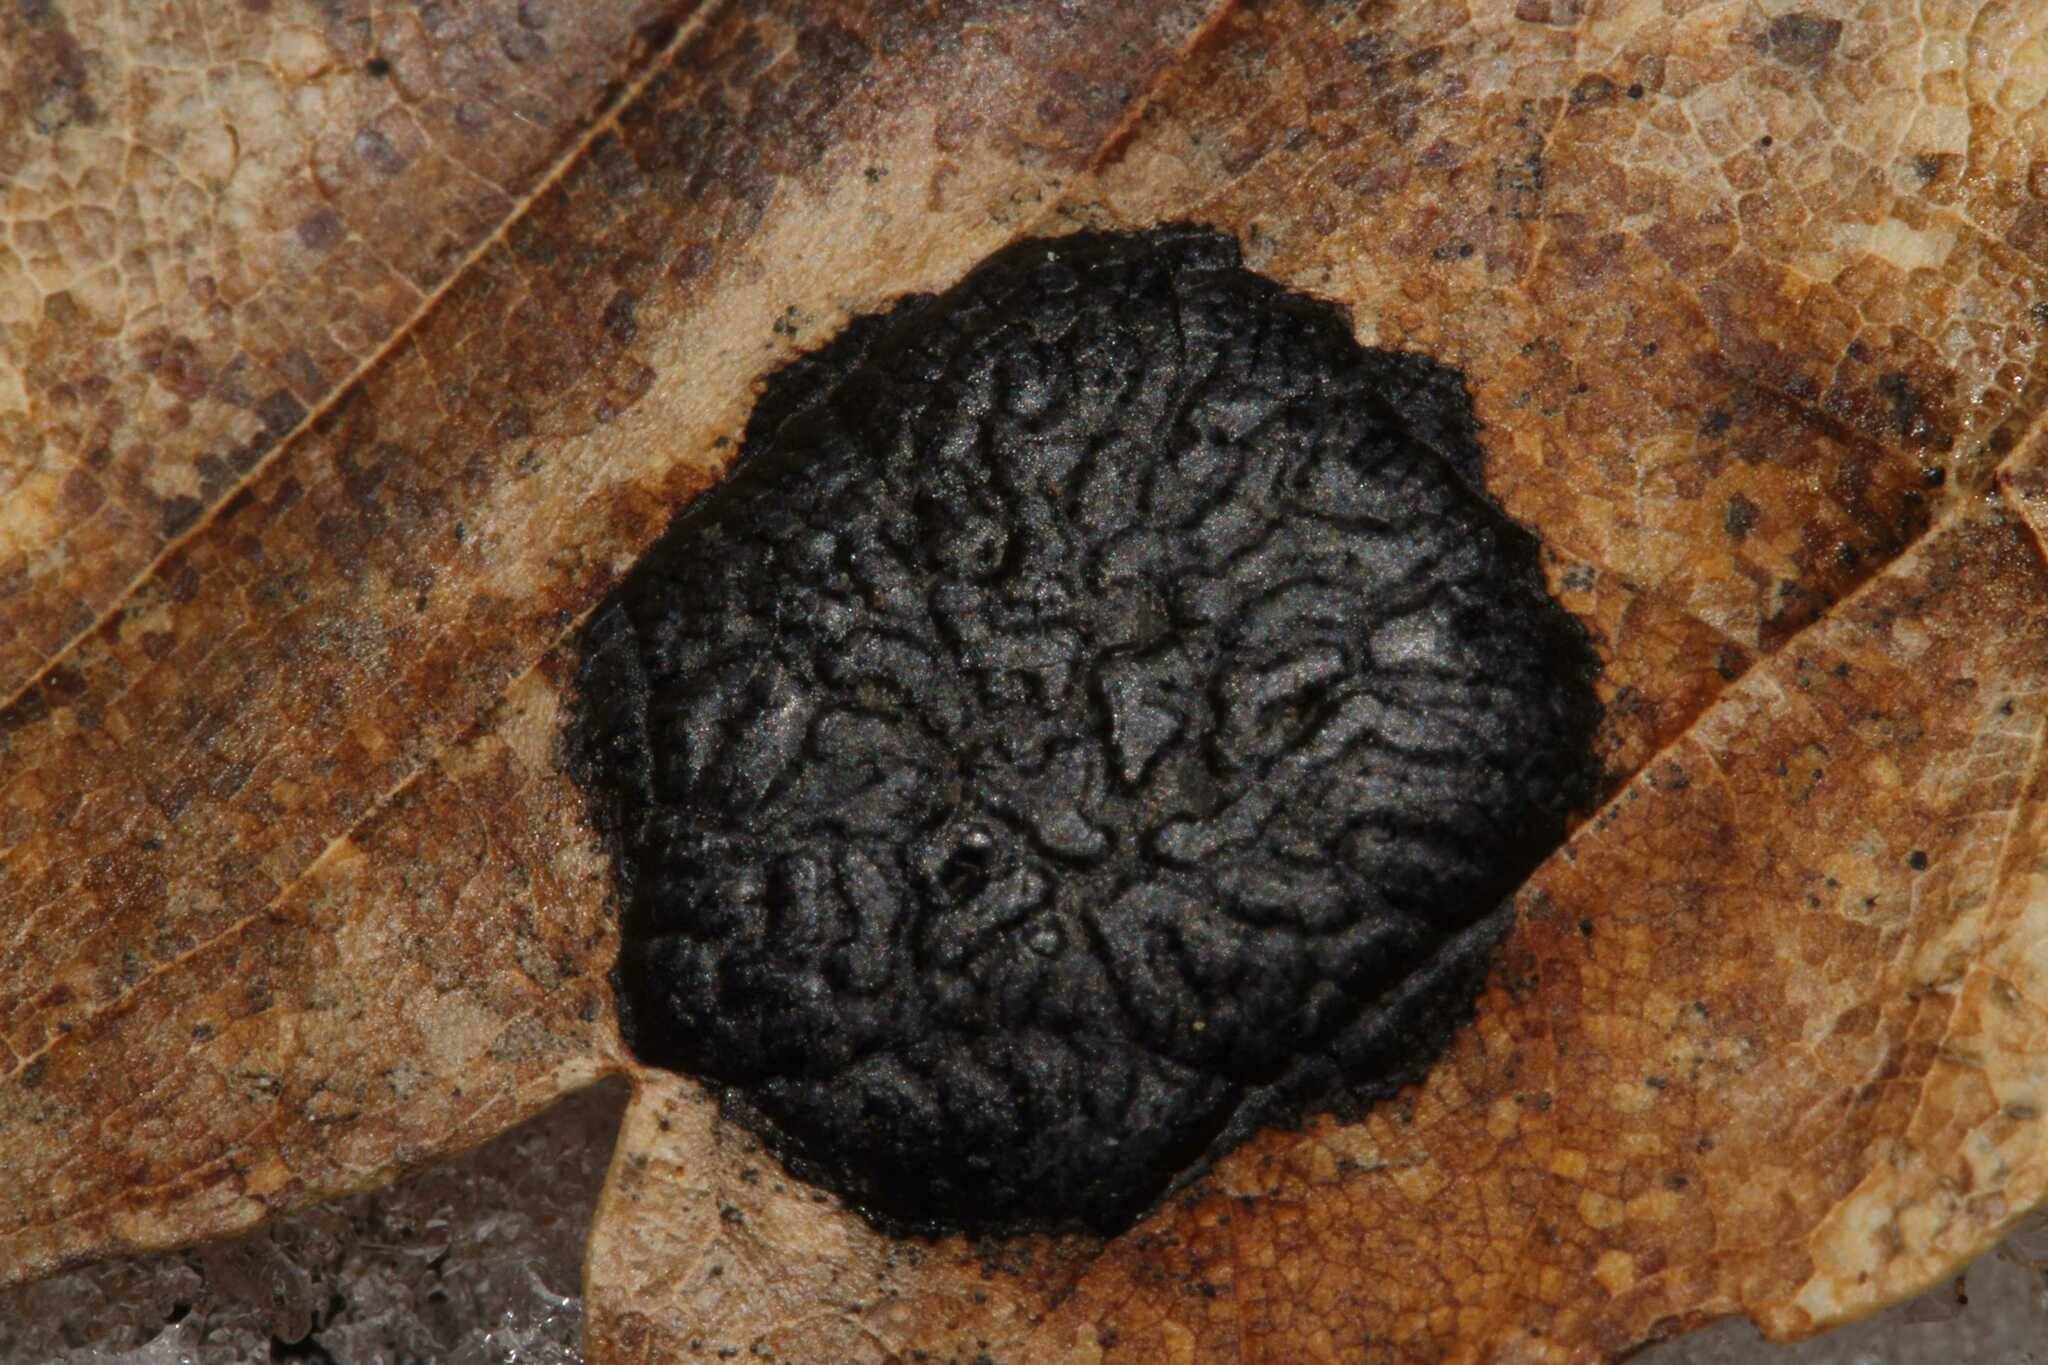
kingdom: Fungi
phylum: Ascomycota
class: Leotiomycetes
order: Rhytismatales
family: Rhytismataceae
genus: Rhytisma
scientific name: Rhytisma acerinum
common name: European tar spot
